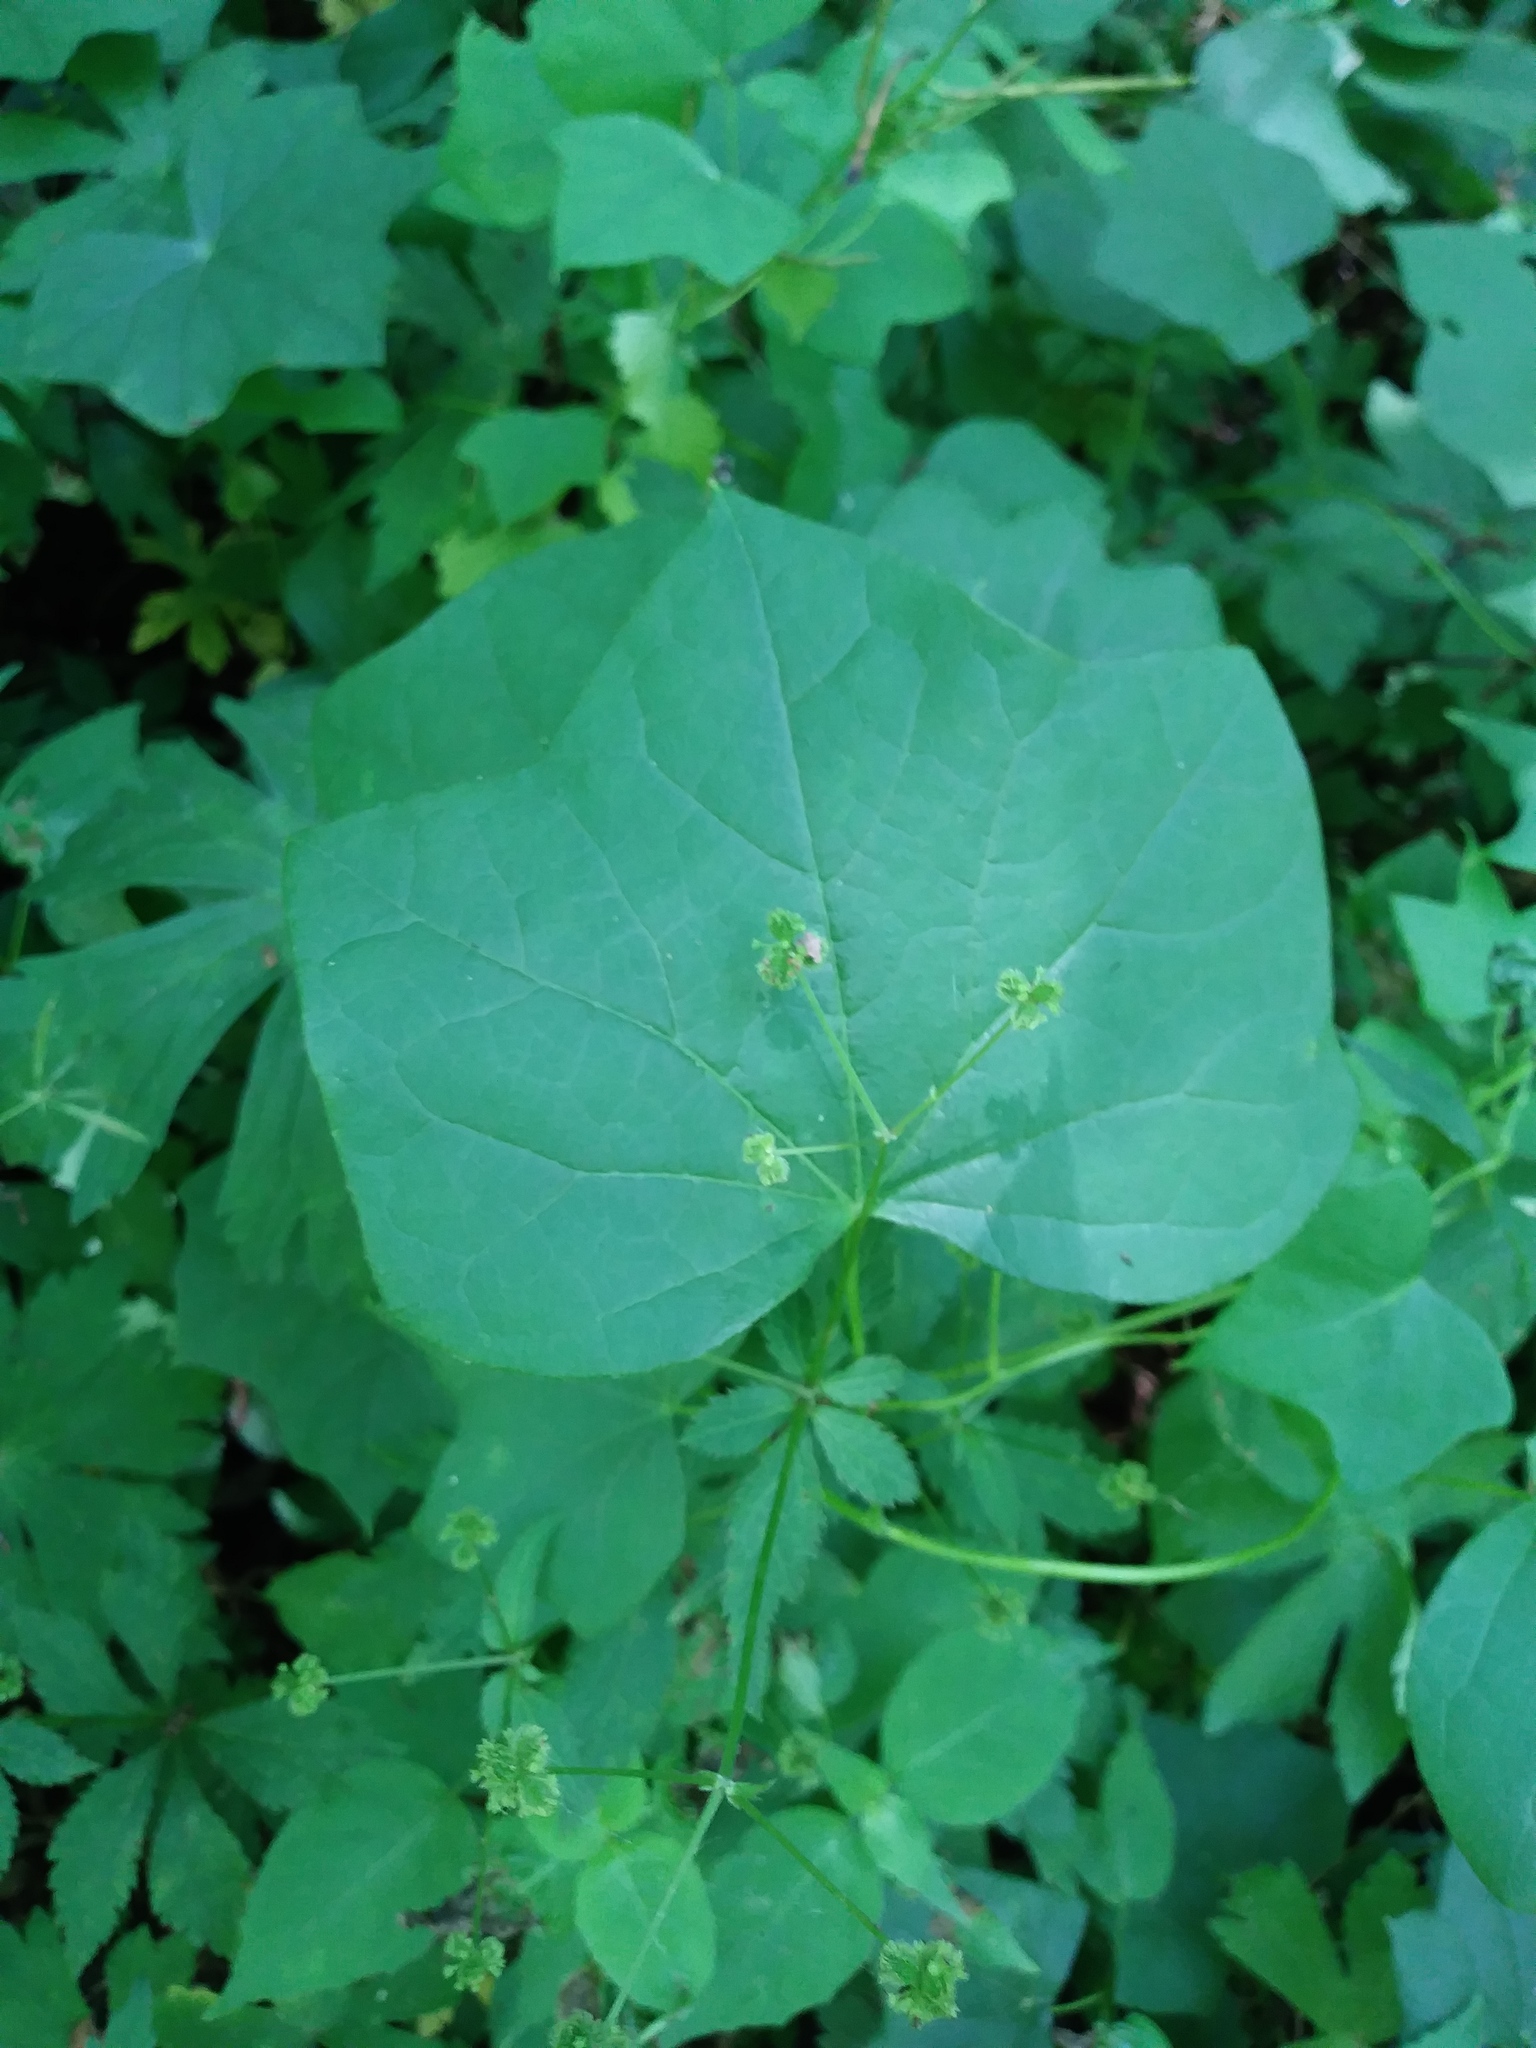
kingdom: Plantae
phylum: Tracheophyta
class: Magnoliopsida
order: Ranunculales
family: Menispermaceae
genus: Menispermum
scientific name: Menispermum canadense
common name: Moonseed
